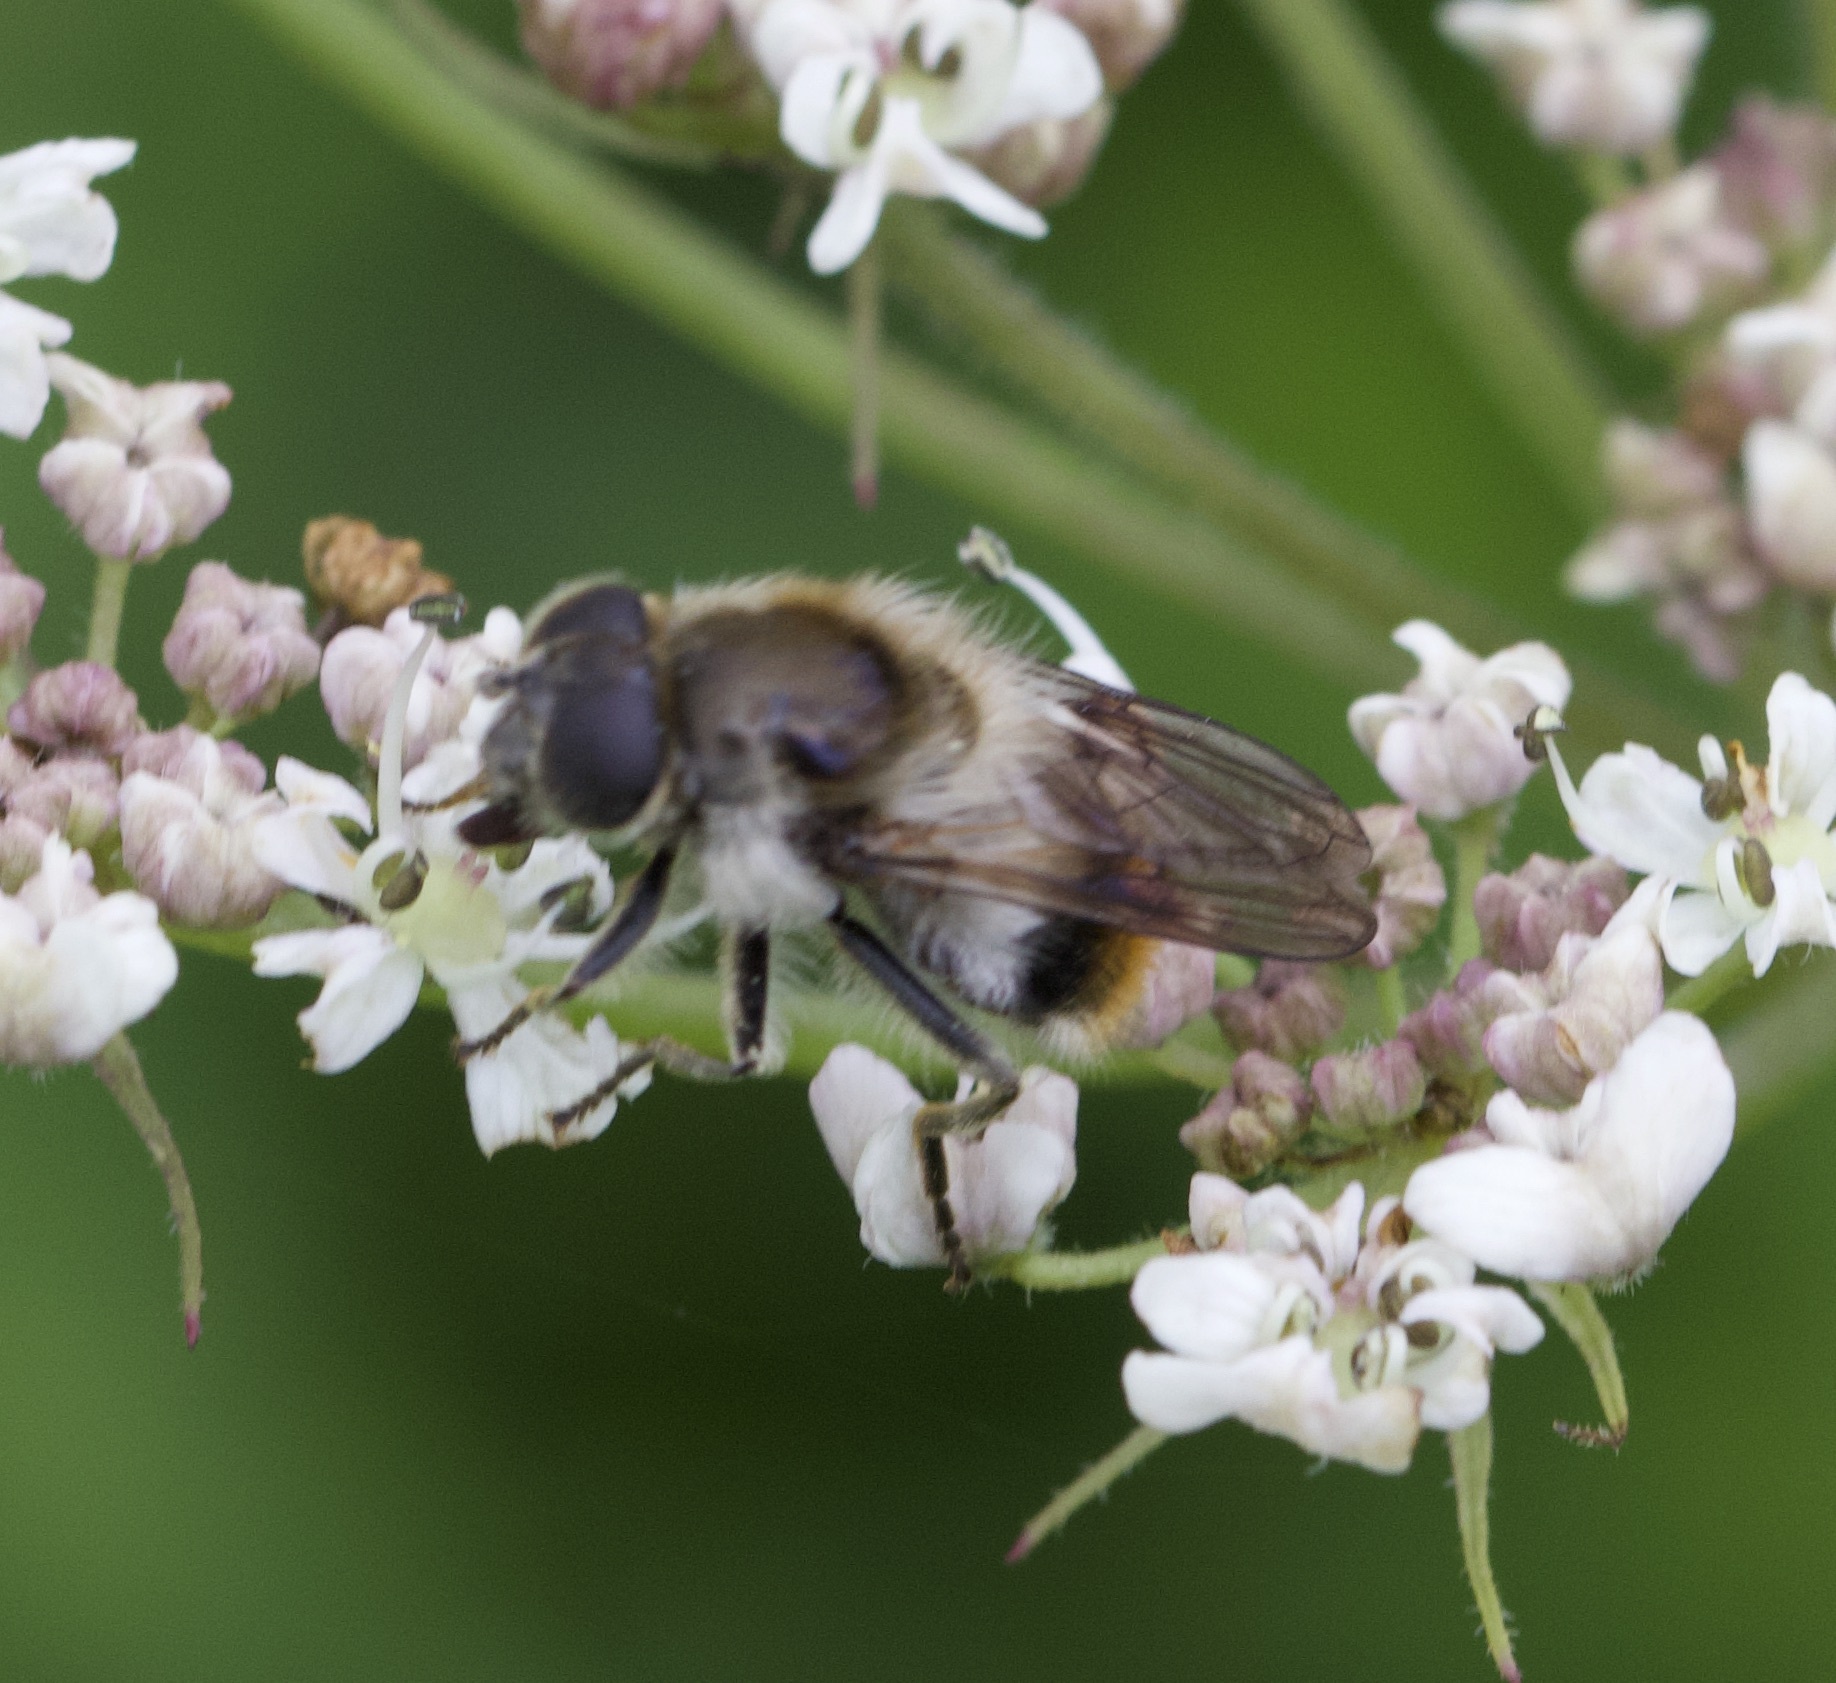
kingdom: Animalia
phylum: Arthropoda
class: Insecta
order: Diptera
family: Syrphidae
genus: Cheilosia
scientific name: Cheilosia illustrata
